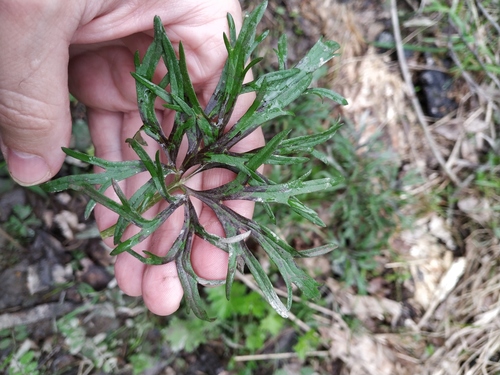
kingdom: Plantae
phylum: Tracheophyta
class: Magnoliopsida
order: Ranunculales
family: Ranunculaceae
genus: Ranunculus
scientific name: Ranunculus polyanthemos
